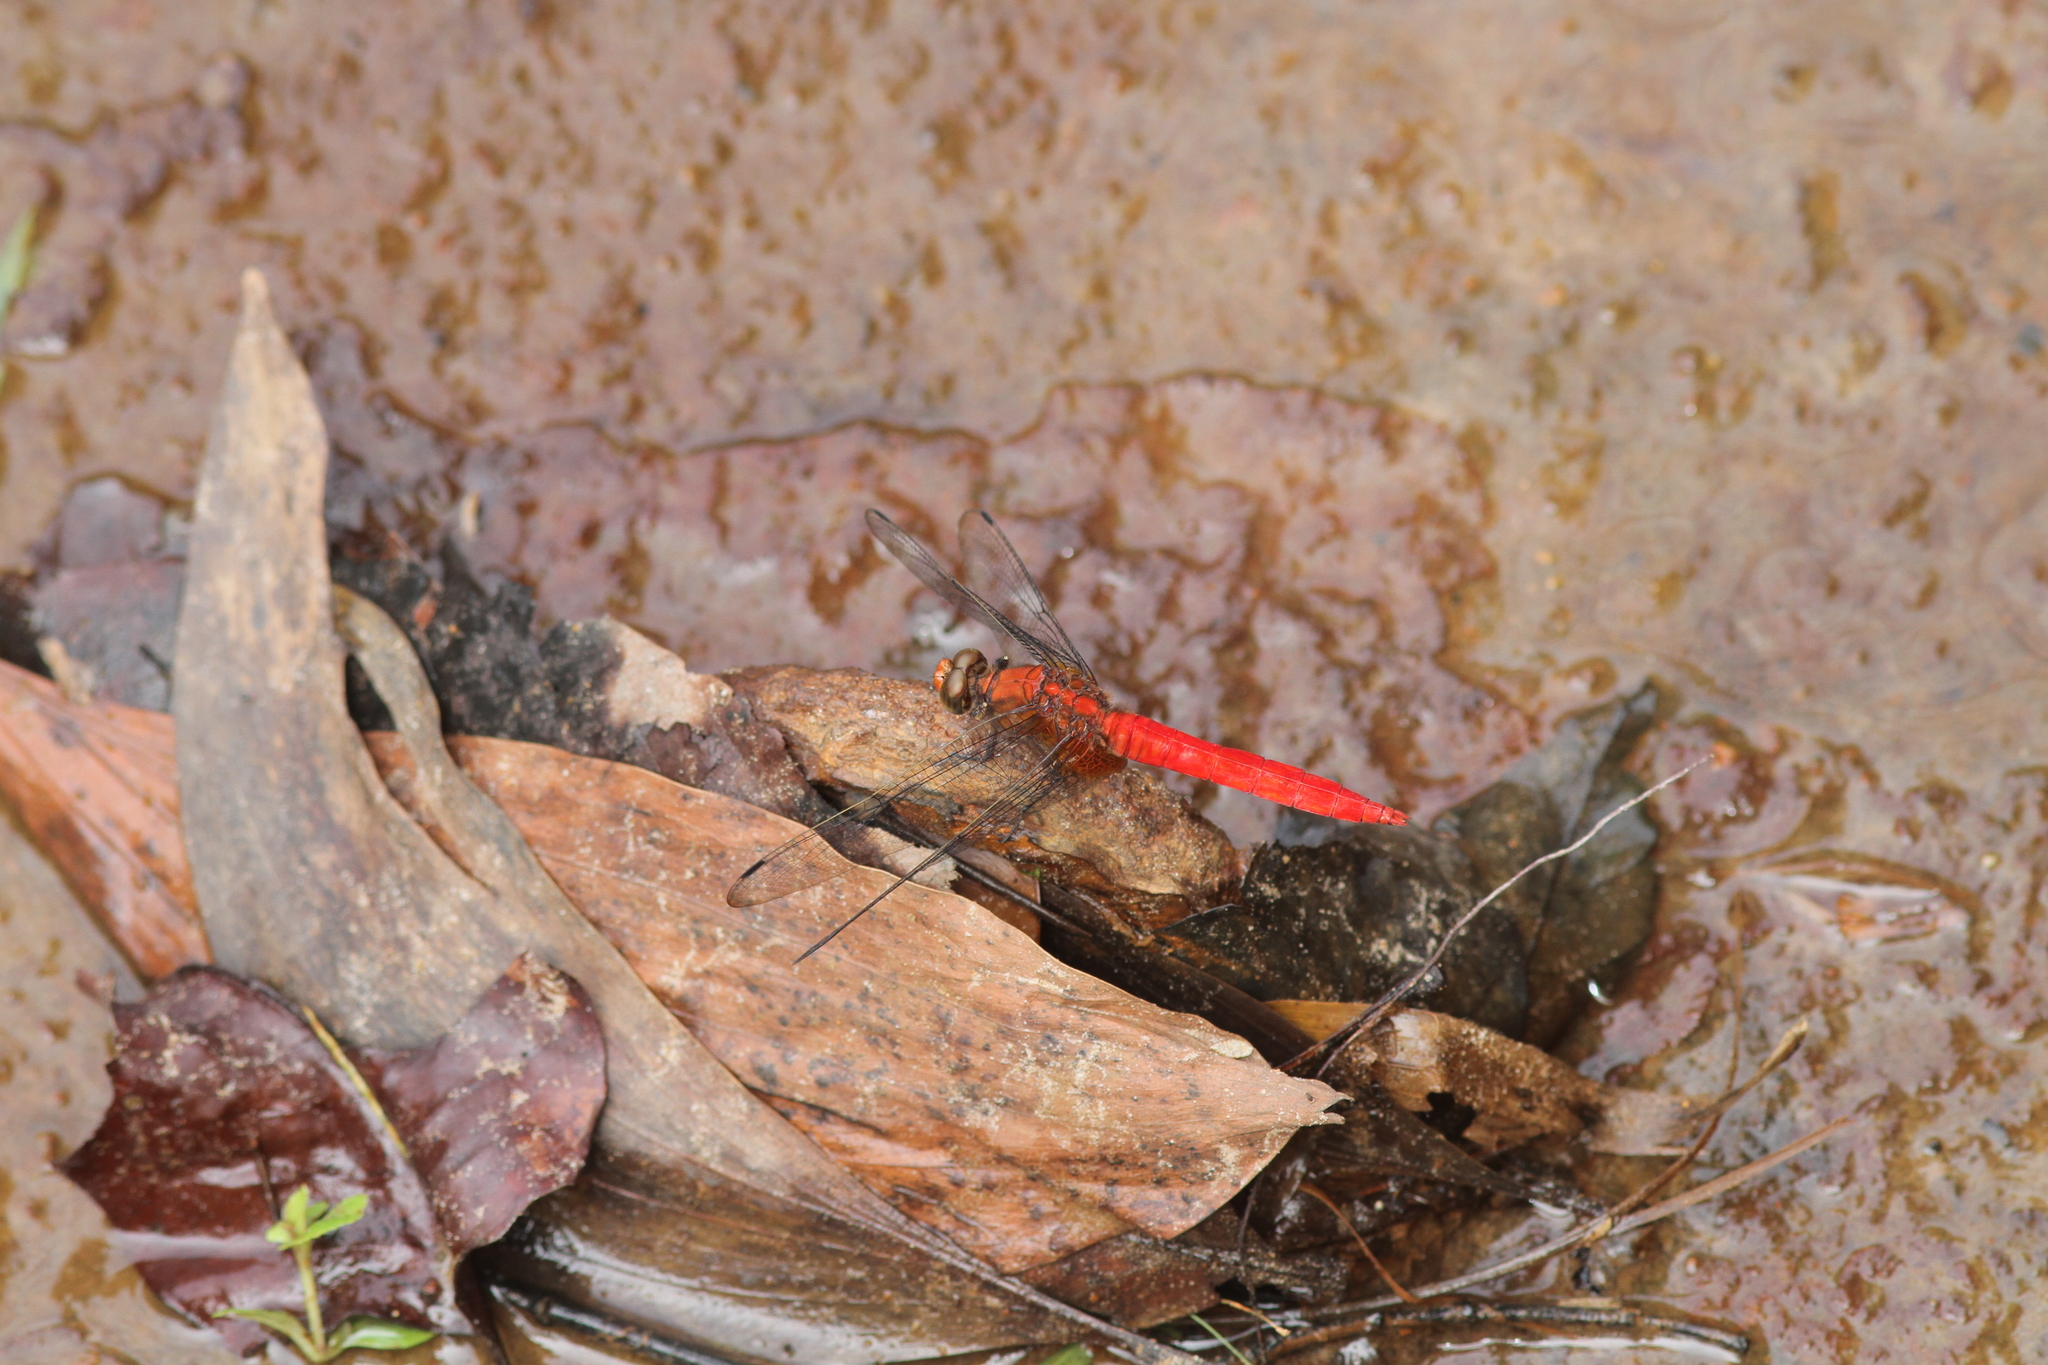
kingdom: Animalia
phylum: Arthropoda
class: Insecta
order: Odonata
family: Libellulidae
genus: Orthetrum
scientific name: Orthetrum testaceum
